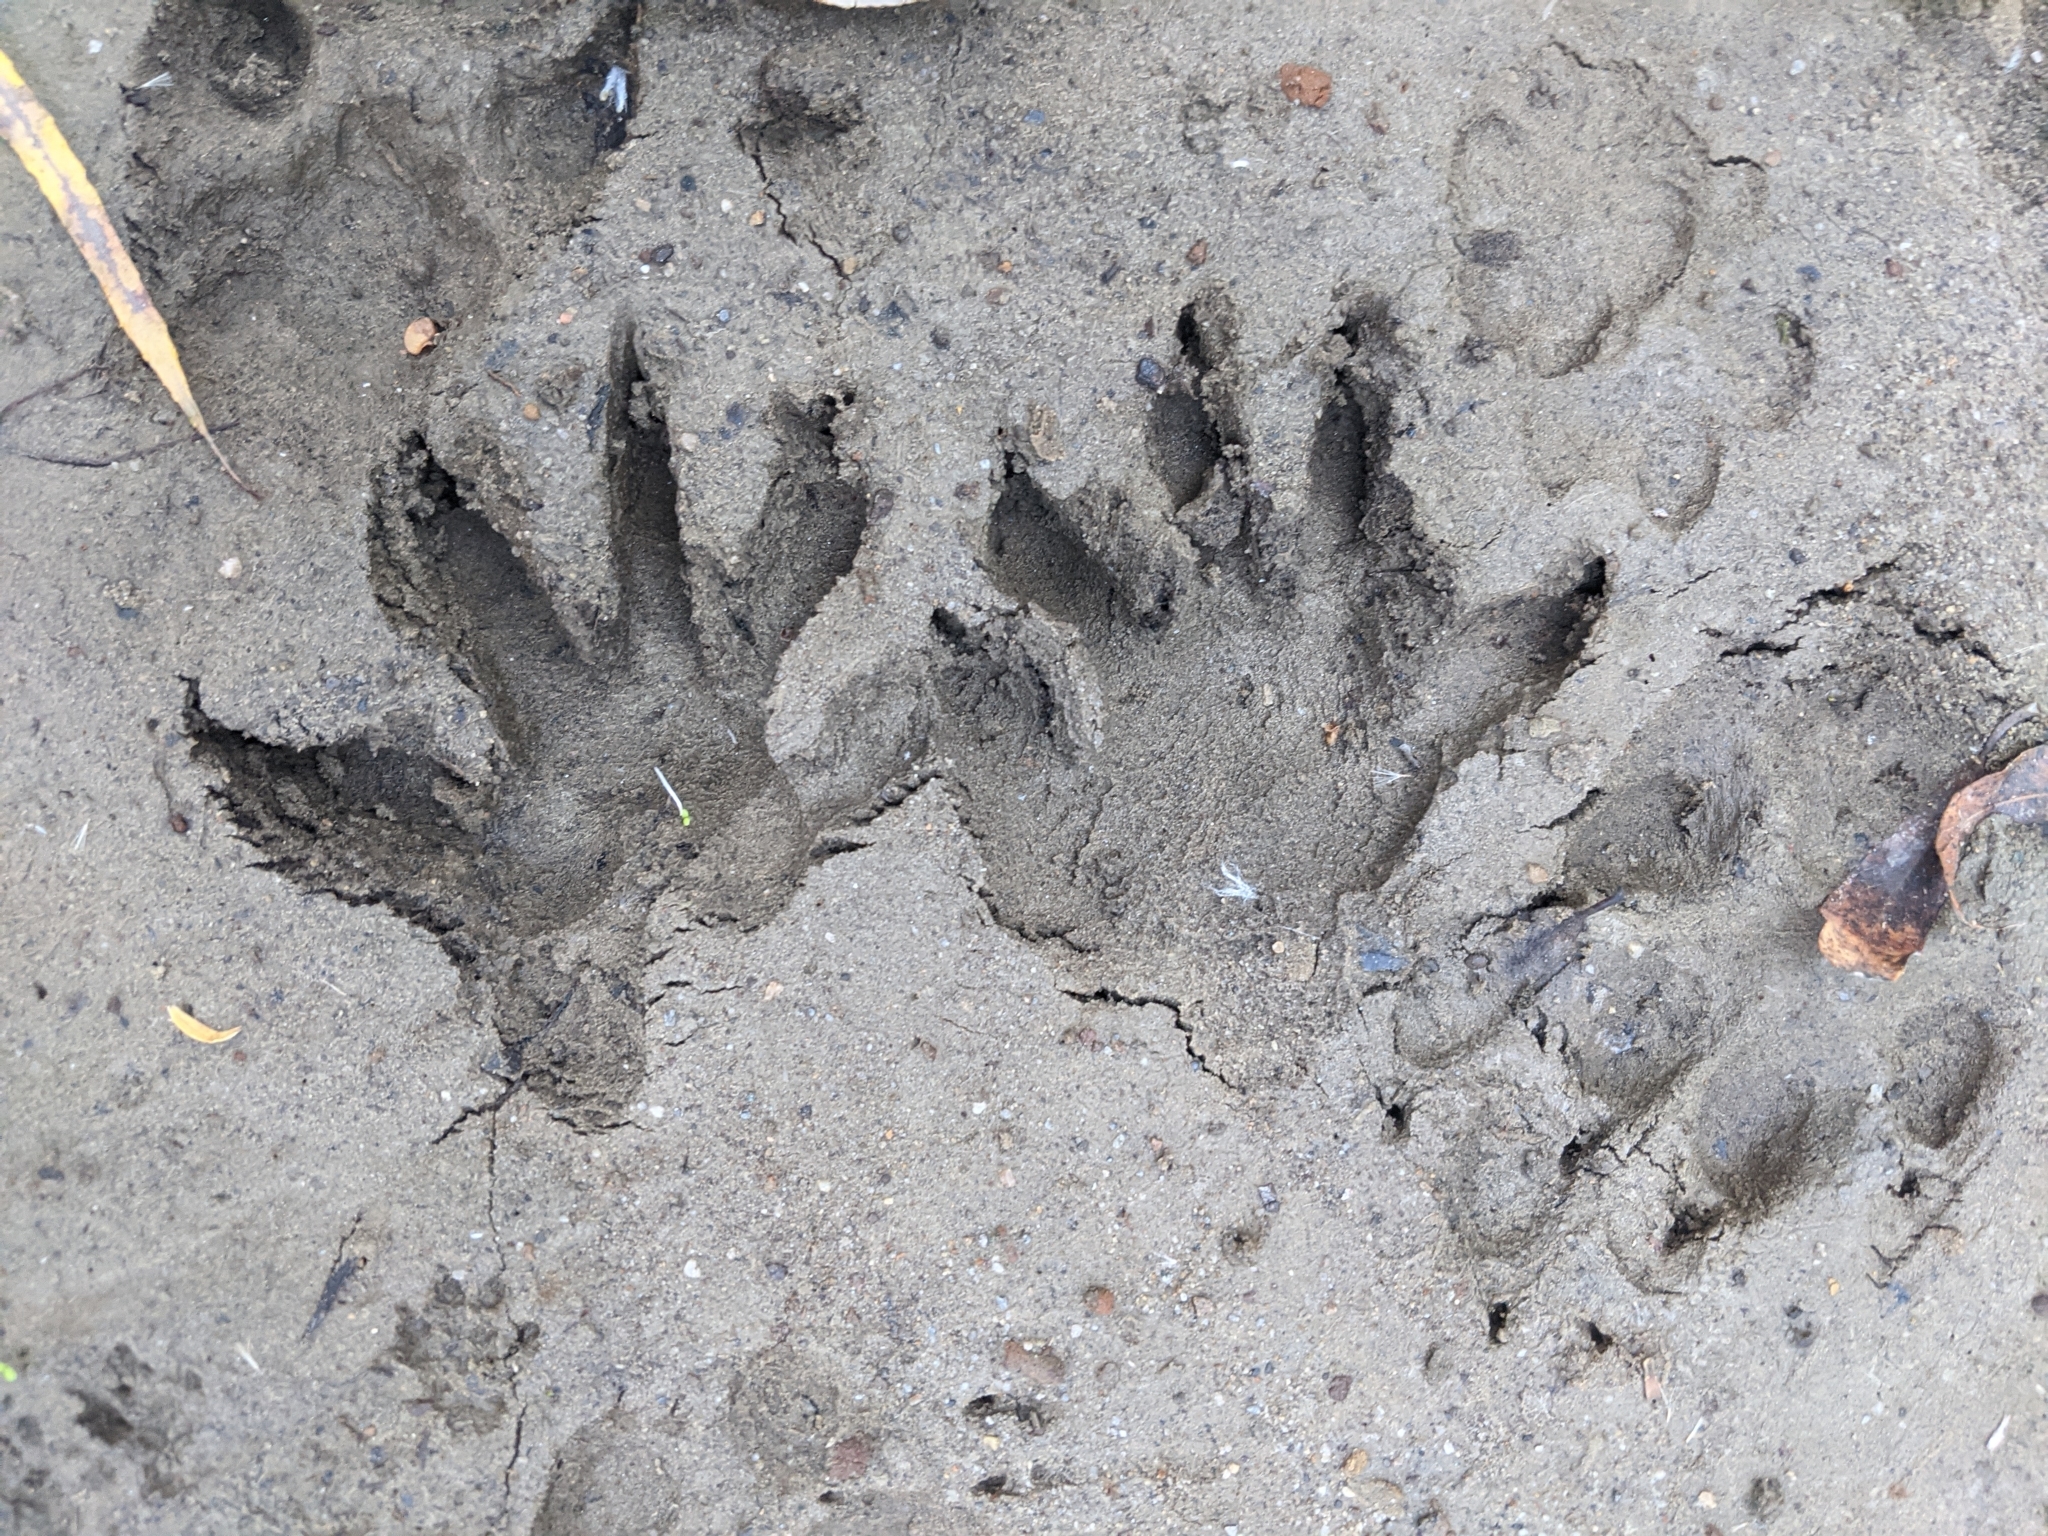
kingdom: Animalia
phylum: Chordata
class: Mammalia
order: Carnivora
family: Procyonidae
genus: Procyon
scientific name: Procyon lotor
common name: Raccoon
